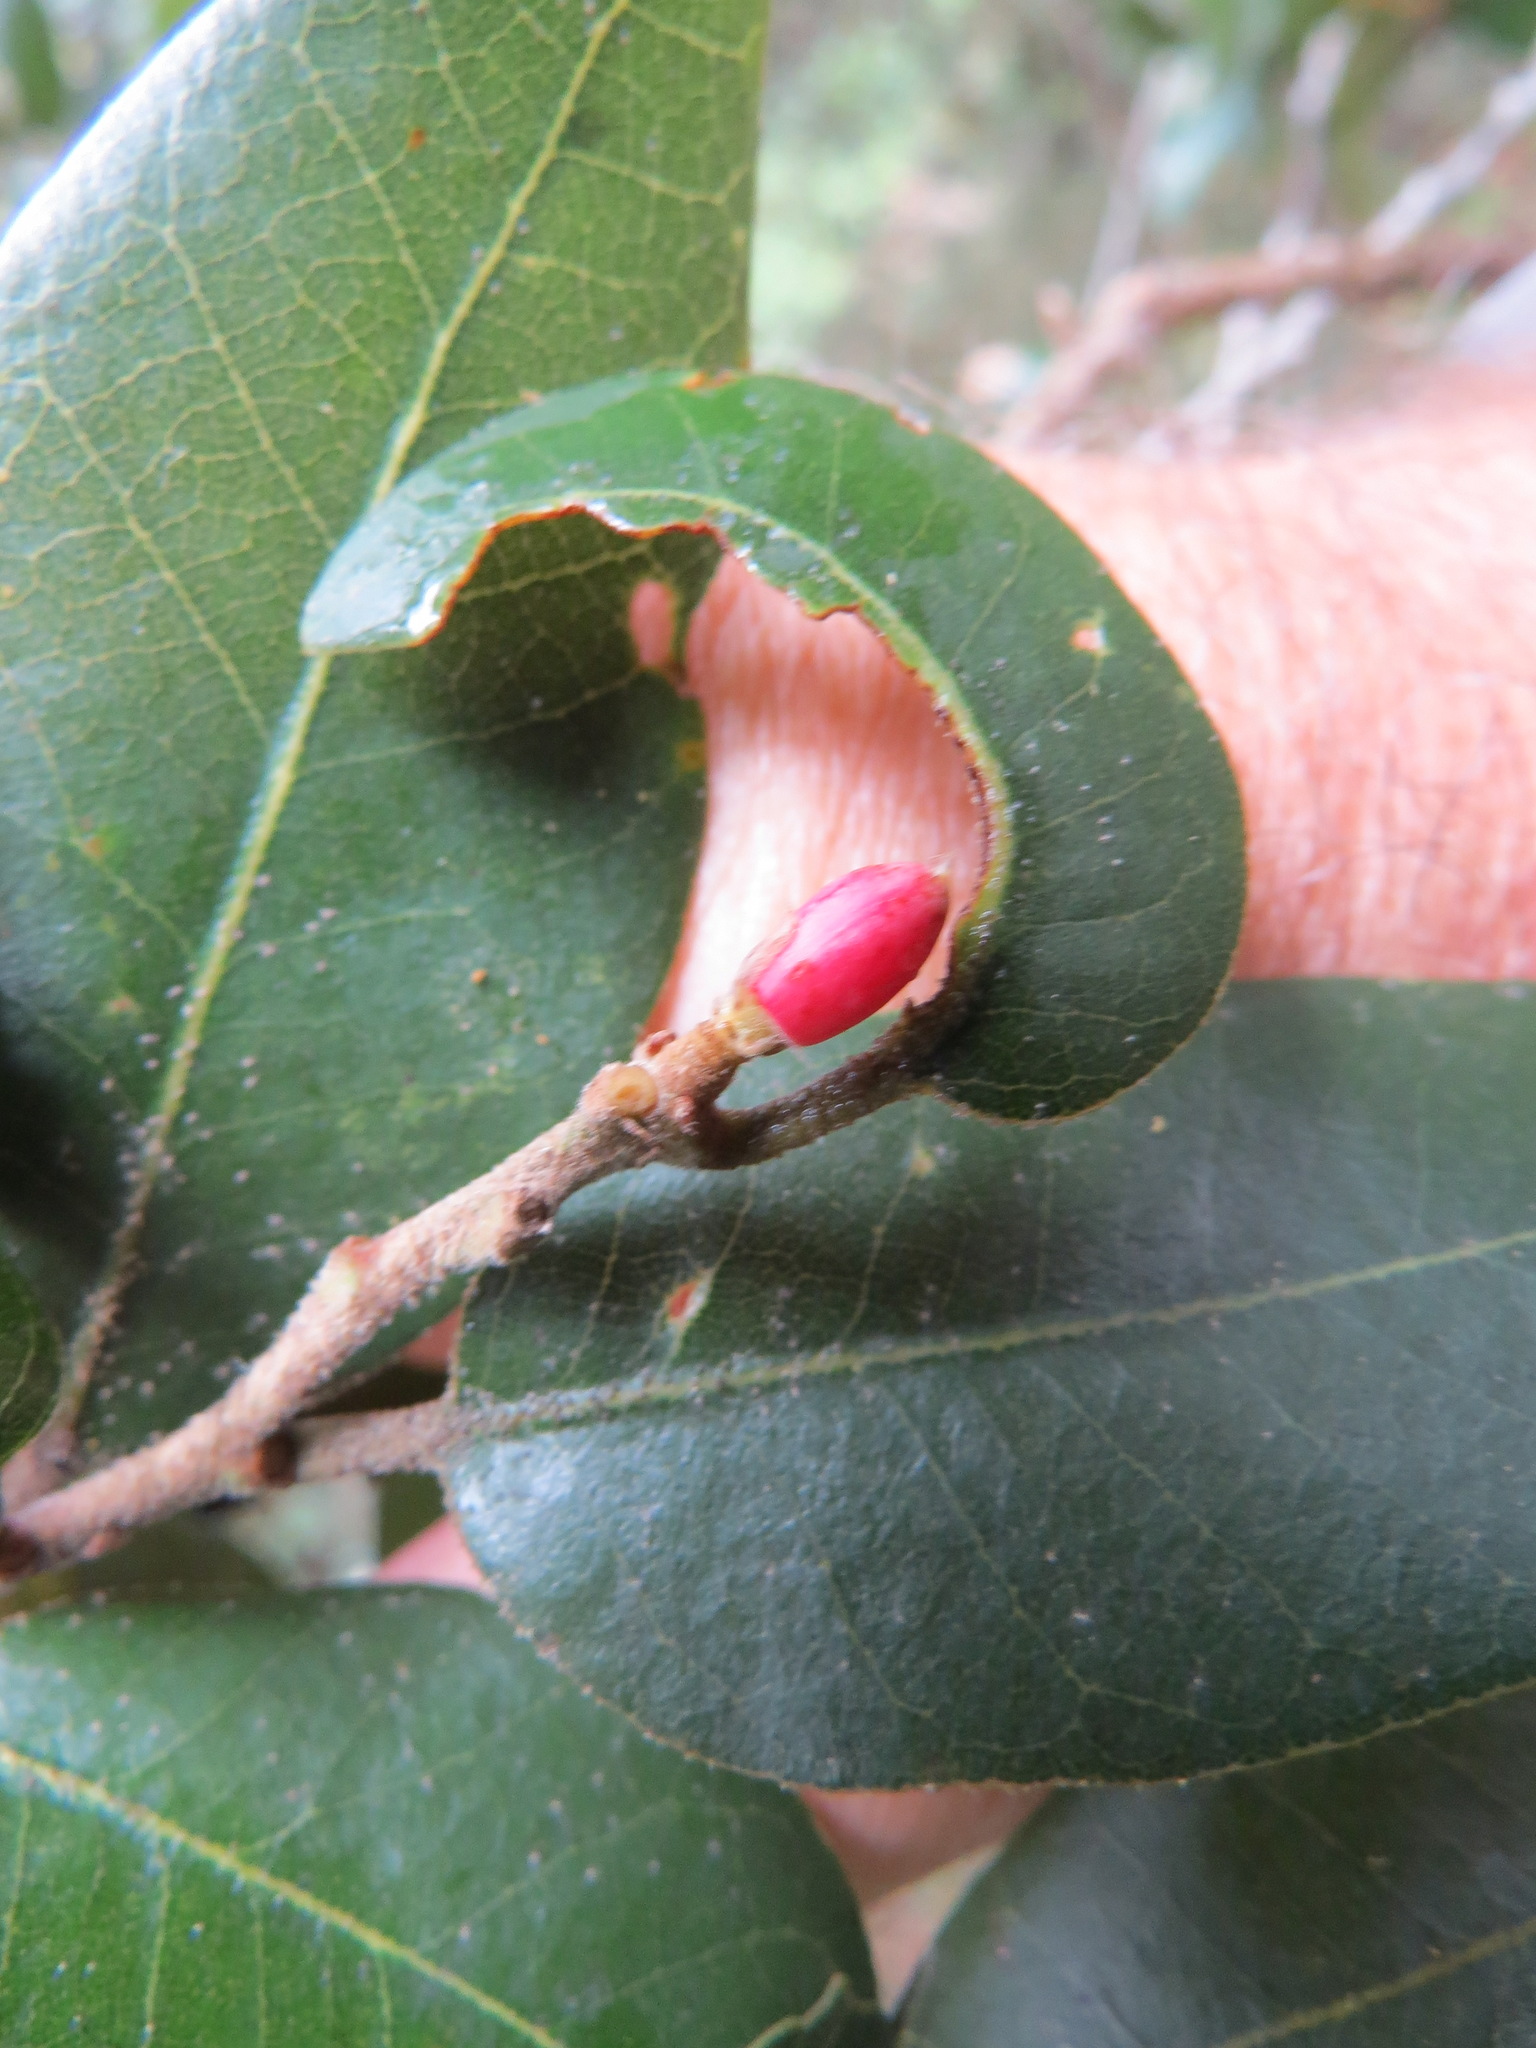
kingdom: Animalia
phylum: Arthropoda
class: Insecta
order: Hymenoptera
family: Cynipidae
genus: Andricus
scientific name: Andricus
